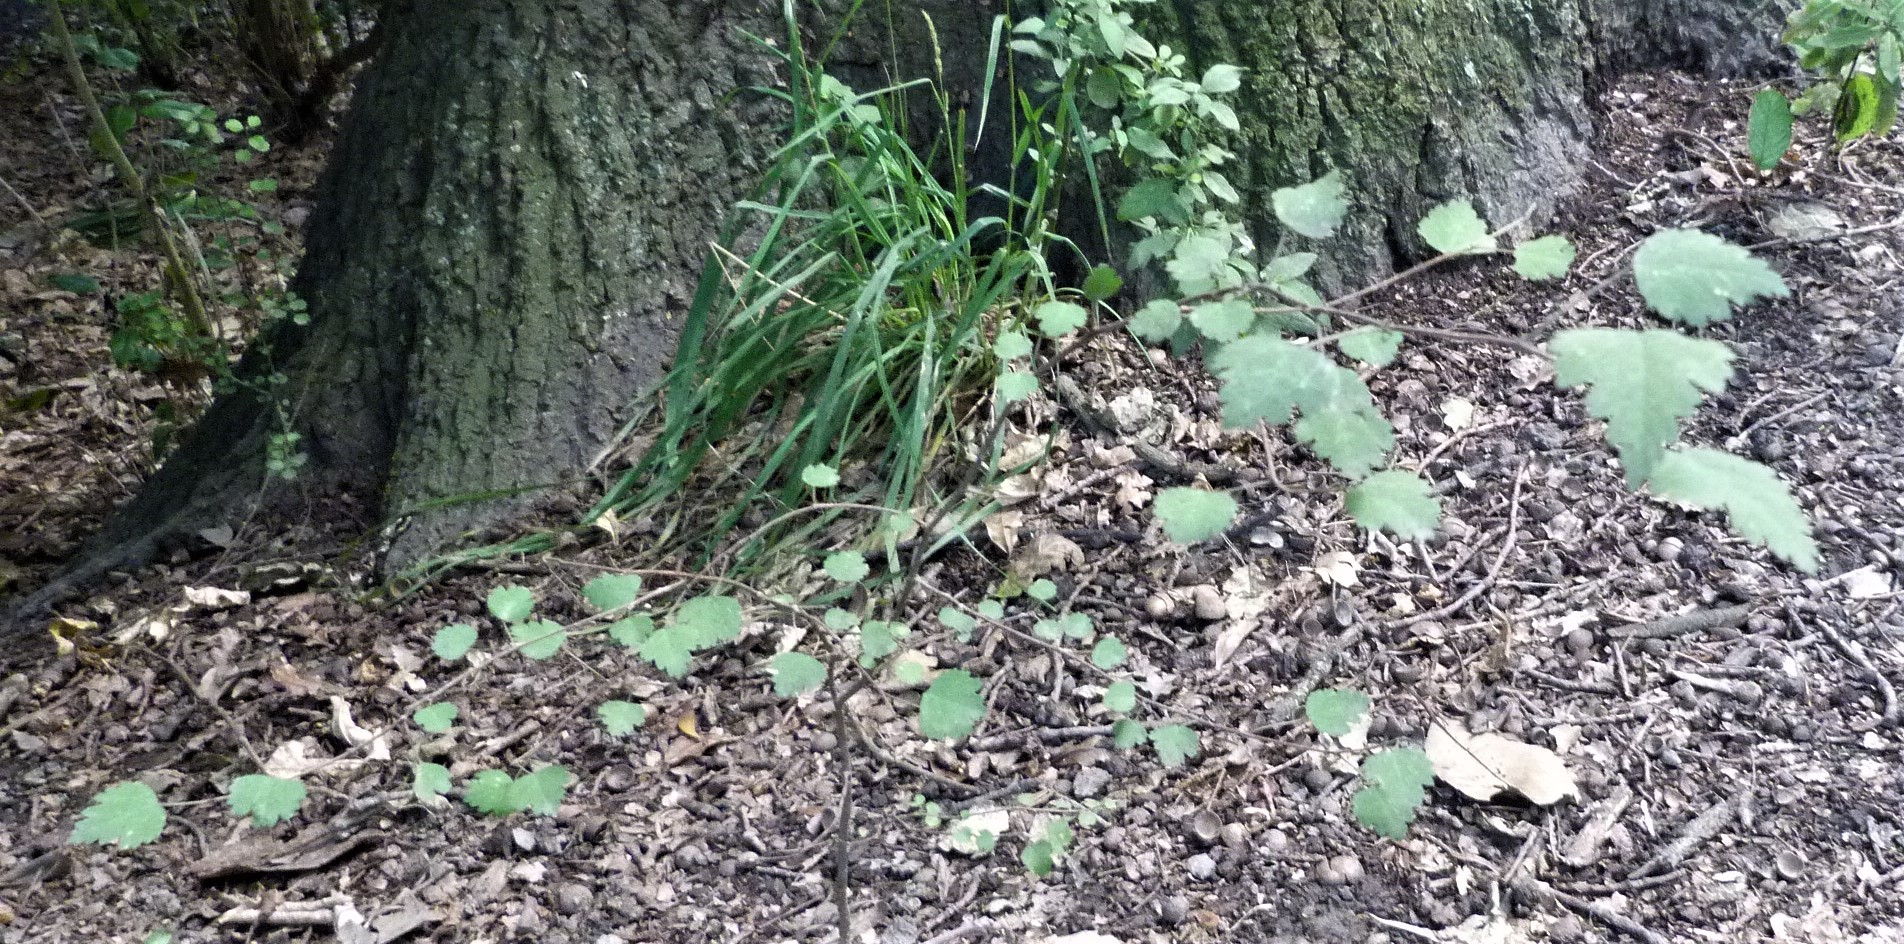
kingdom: Plantae
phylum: Tracheophyta
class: Magnoliopsida
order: Malvales
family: Malvaceae
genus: Plagianthus
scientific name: Plagianthus regius
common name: Manatu
